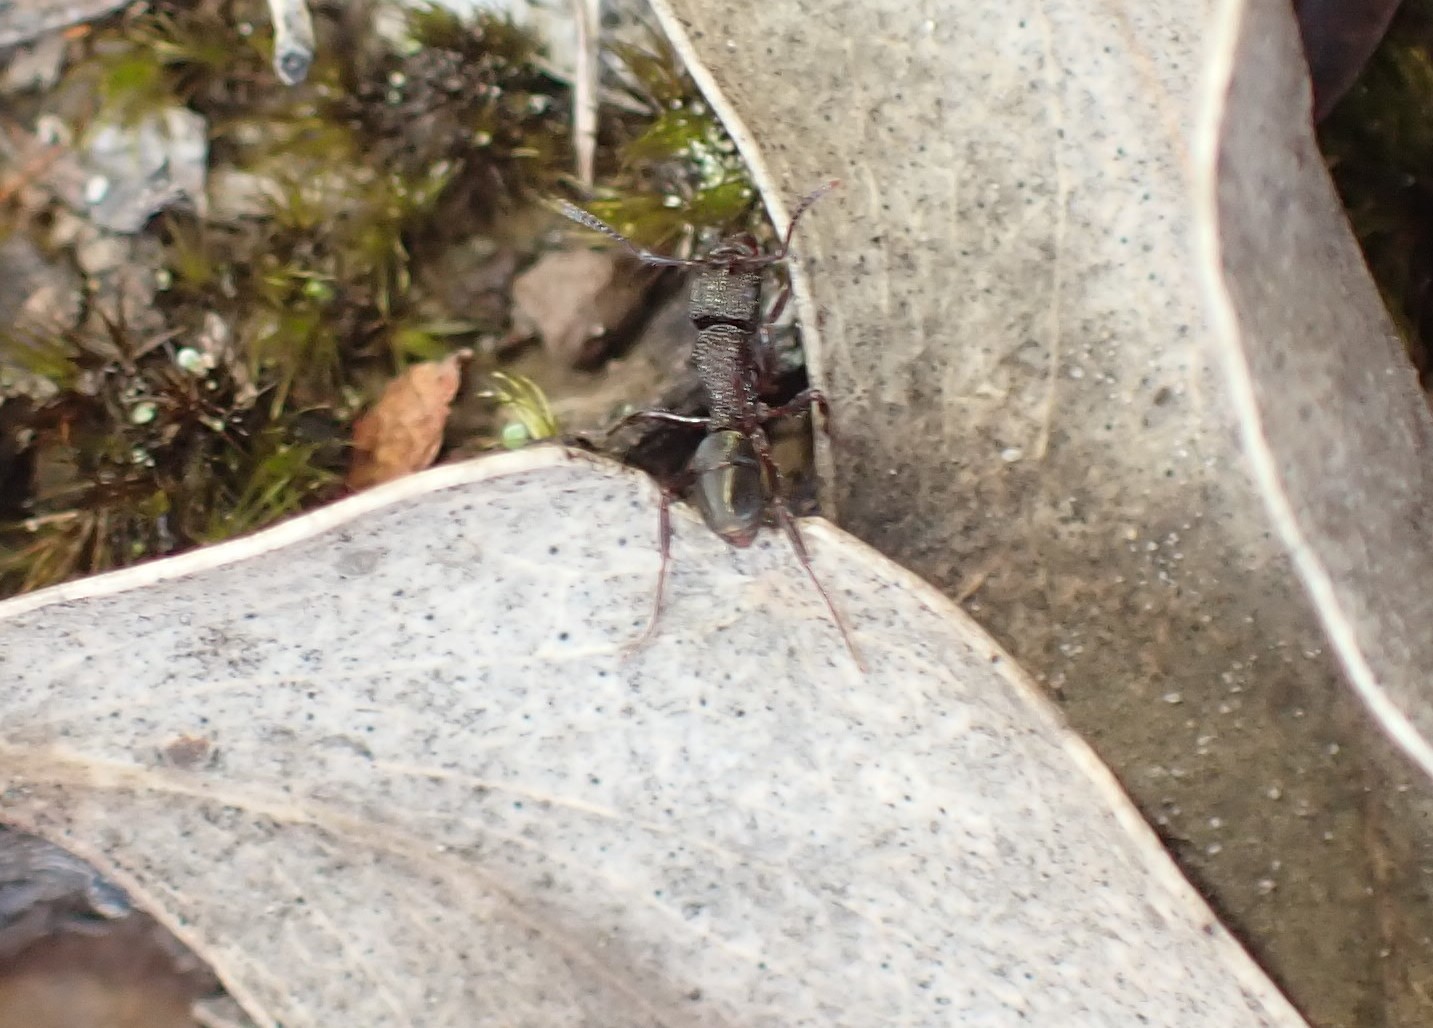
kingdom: Animalia
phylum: Arthropoda
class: Insecta
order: Hymenoptera
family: Formicidae
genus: Rhytidoponera
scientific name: Rhytidoponera tasmaniensis
